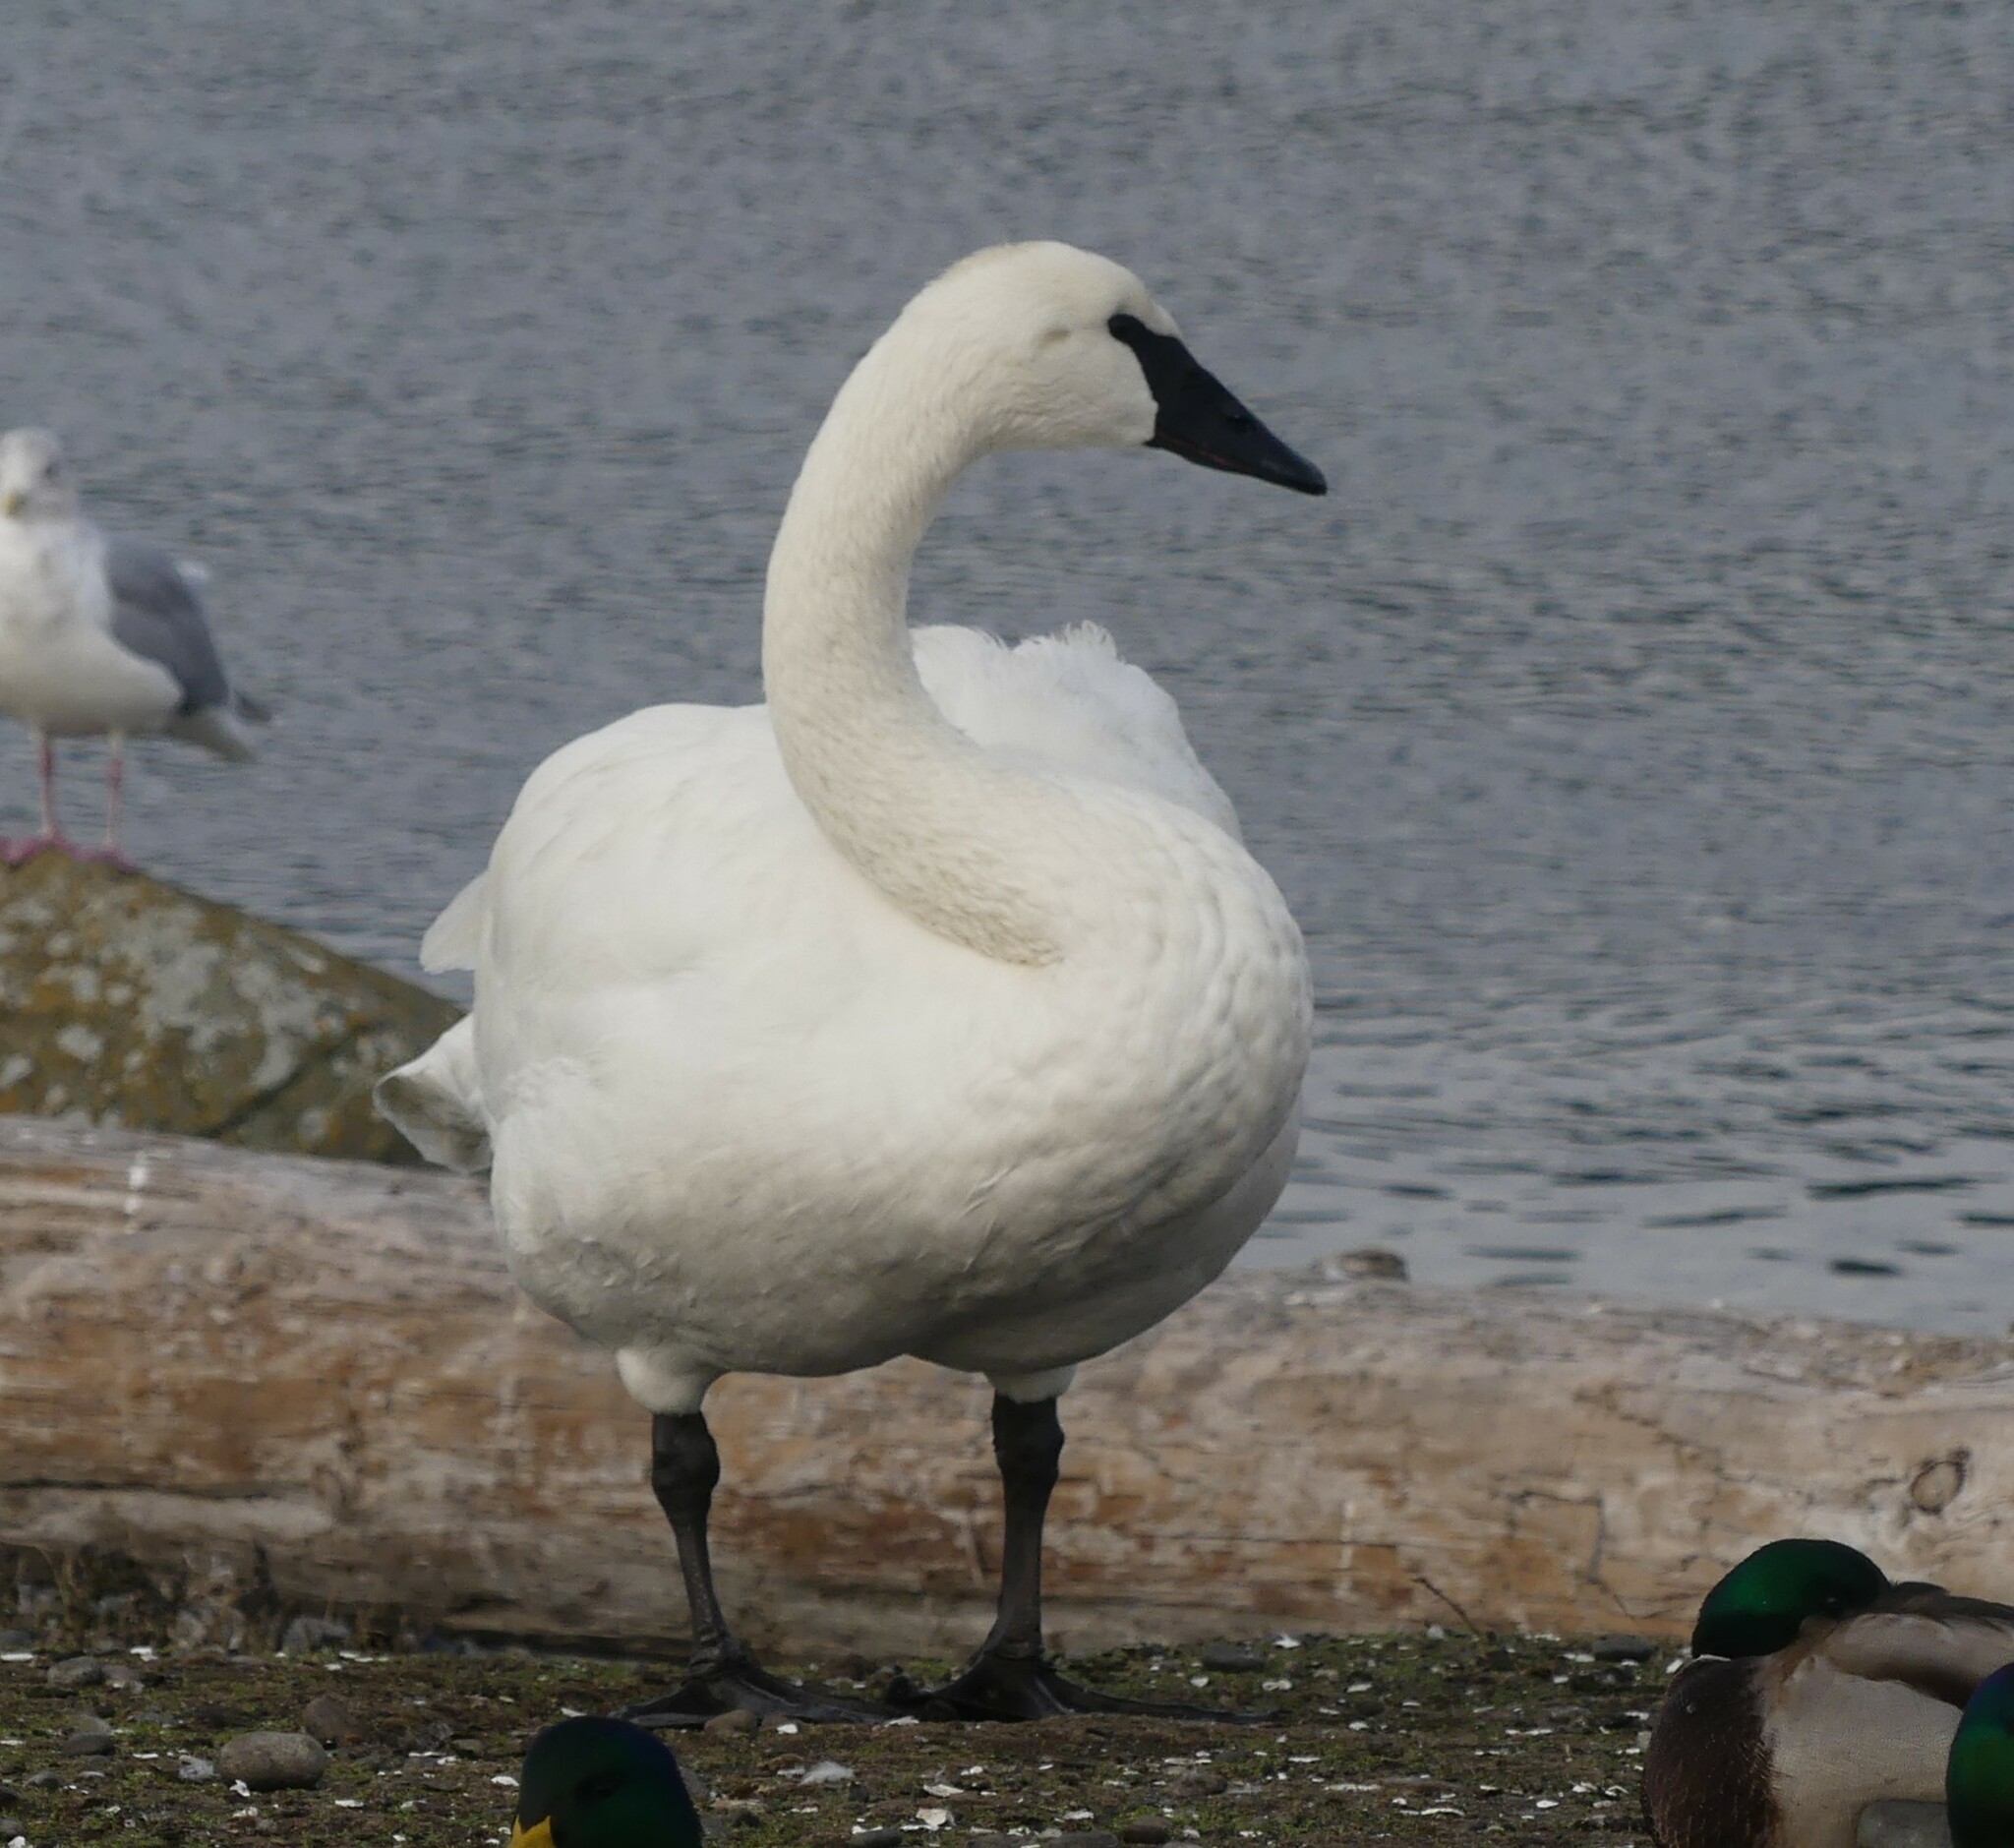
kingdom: Animalia
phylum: Chordata
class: Aves
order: Anseriformes
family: Anatidae
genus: Cygnus
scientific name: Cygnus buccinator
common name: Trumpeter swan
